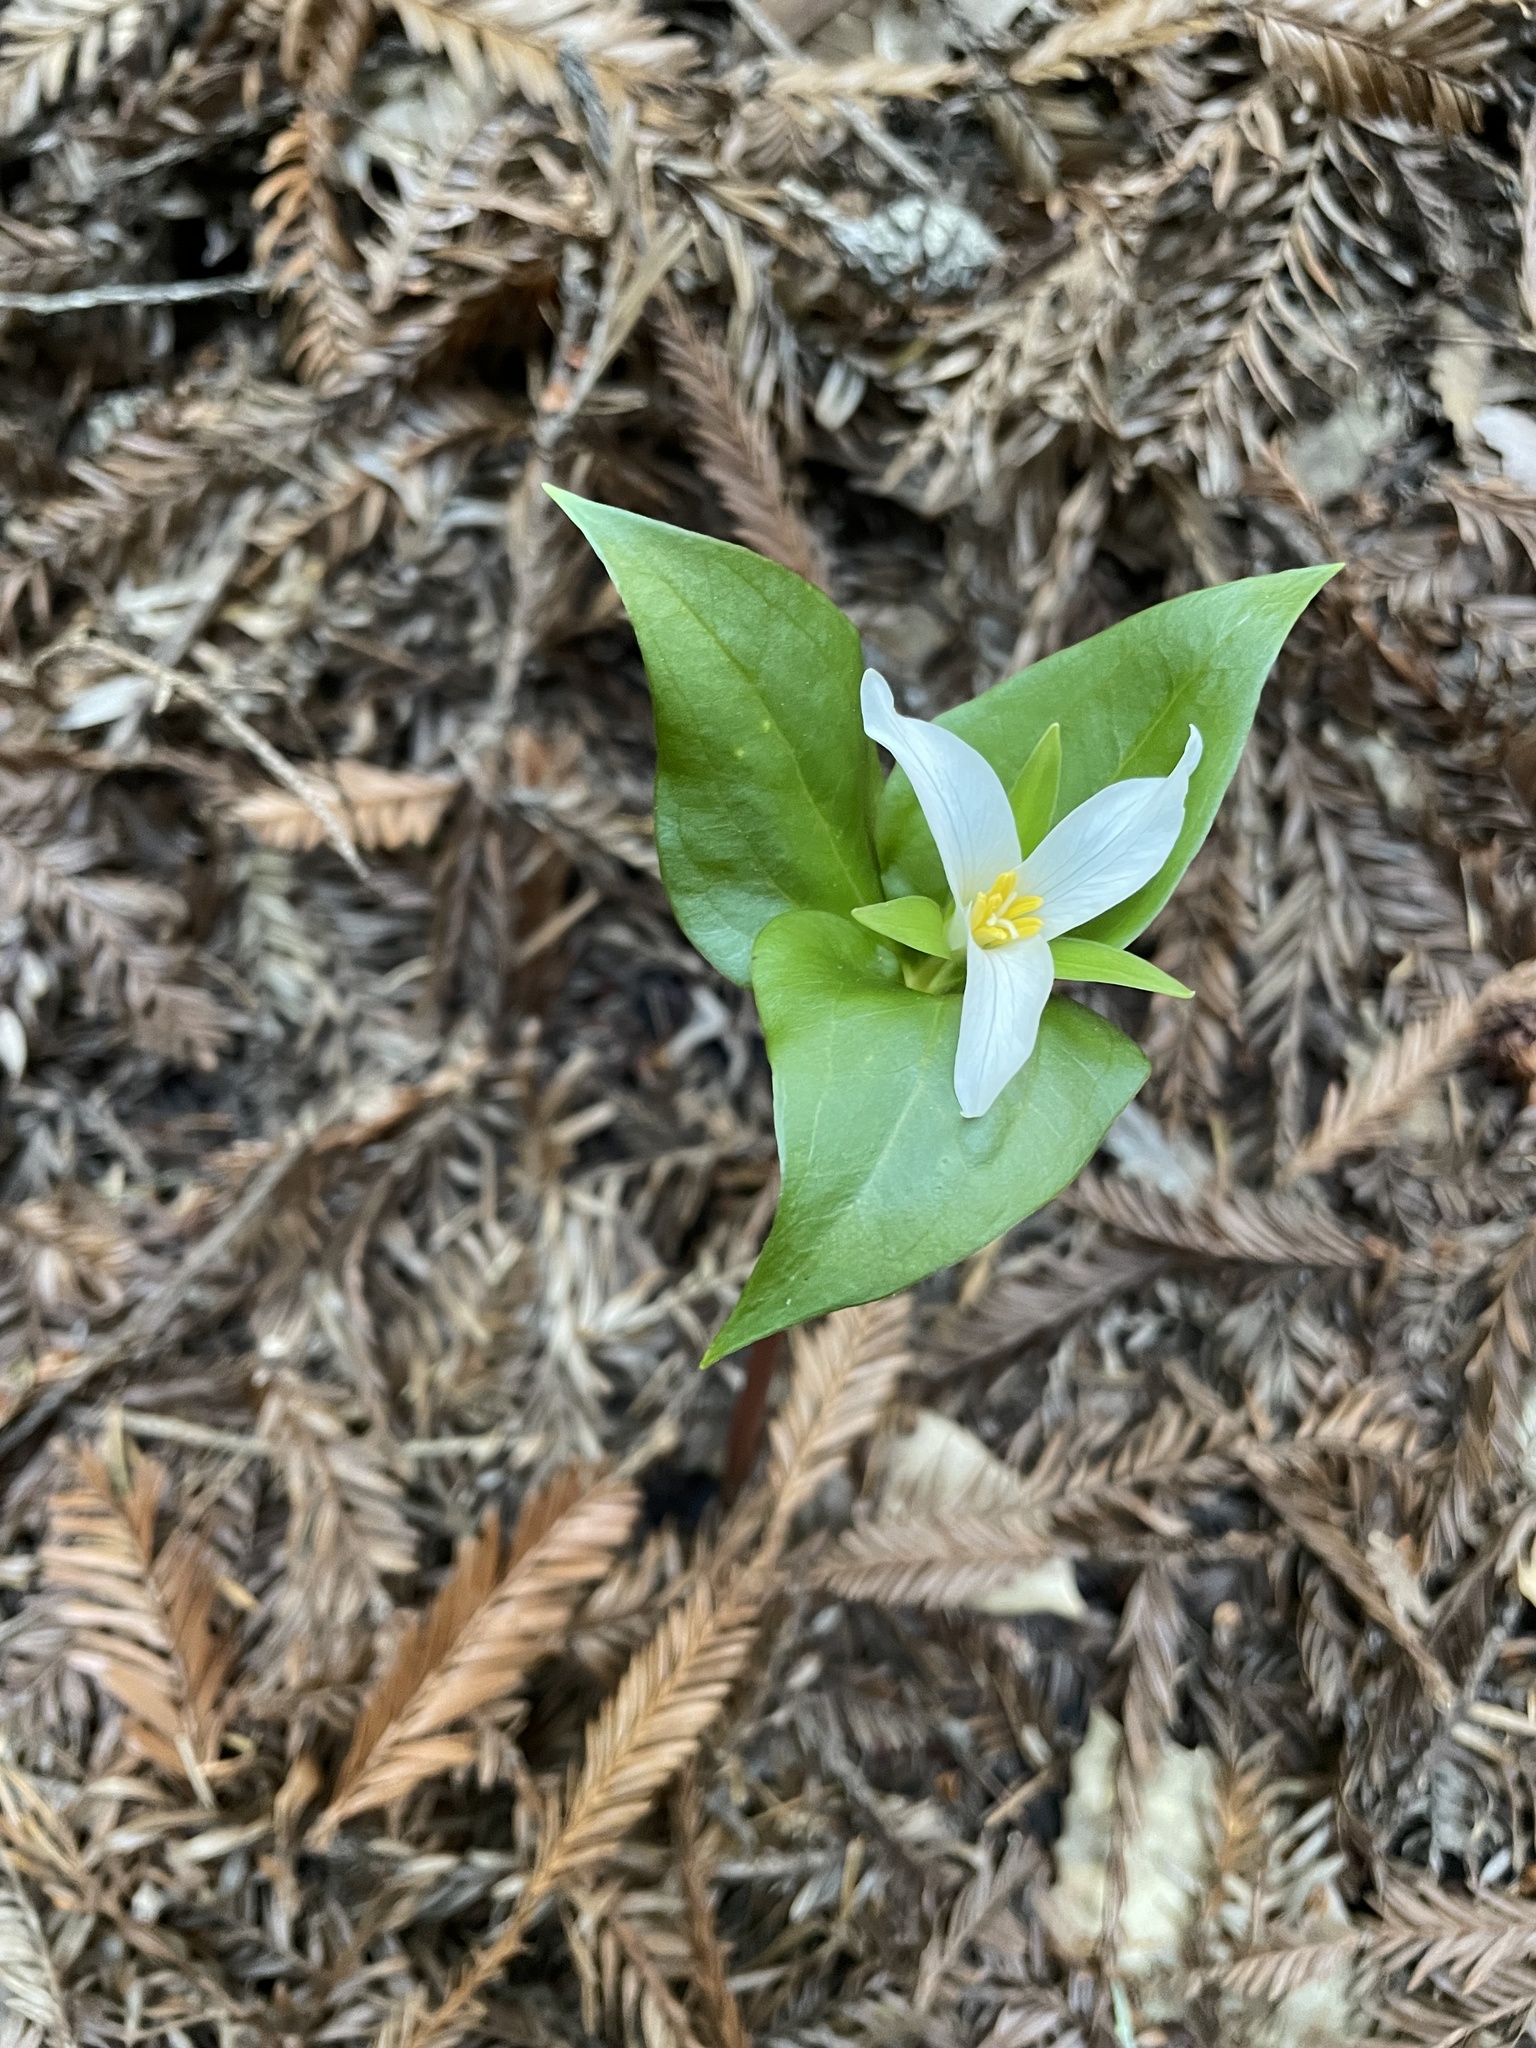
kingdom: Plantae
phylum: Tracheophyta
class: Liliopsida
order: Liliales
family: Melanthiaceae
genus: Trillium
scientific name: Trillium ovatum
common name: Pacific trillium
